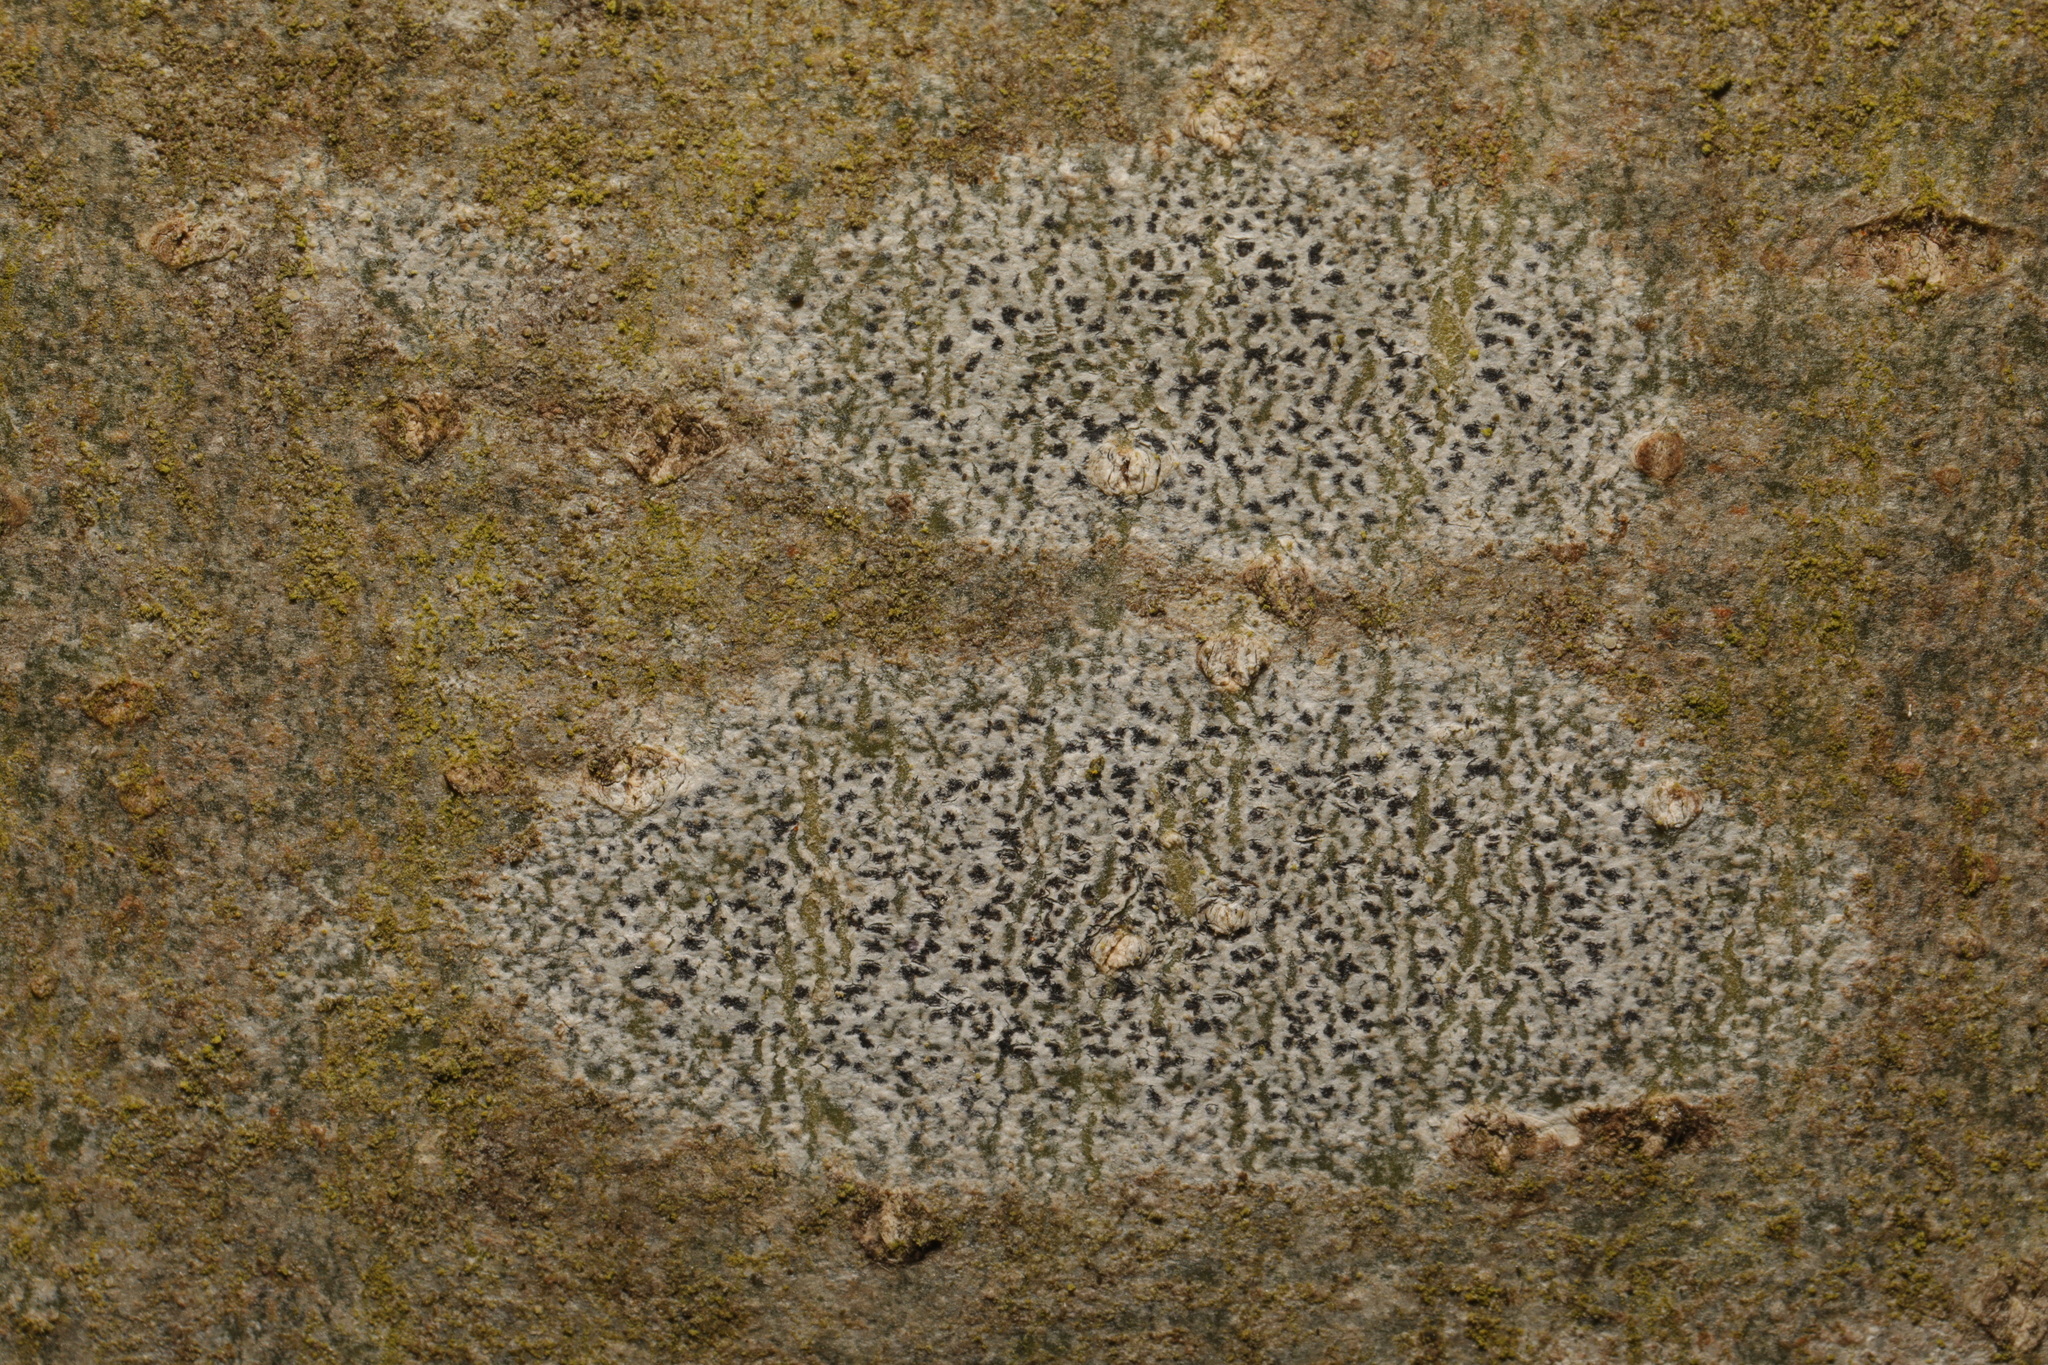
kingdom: Fungi
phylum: Ascomycota
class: Arthoniomycetes
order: Arthoniales
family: Arthoniaceae
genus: Arthonia
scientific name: Arthonia radiata
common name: Asterisk lichen
